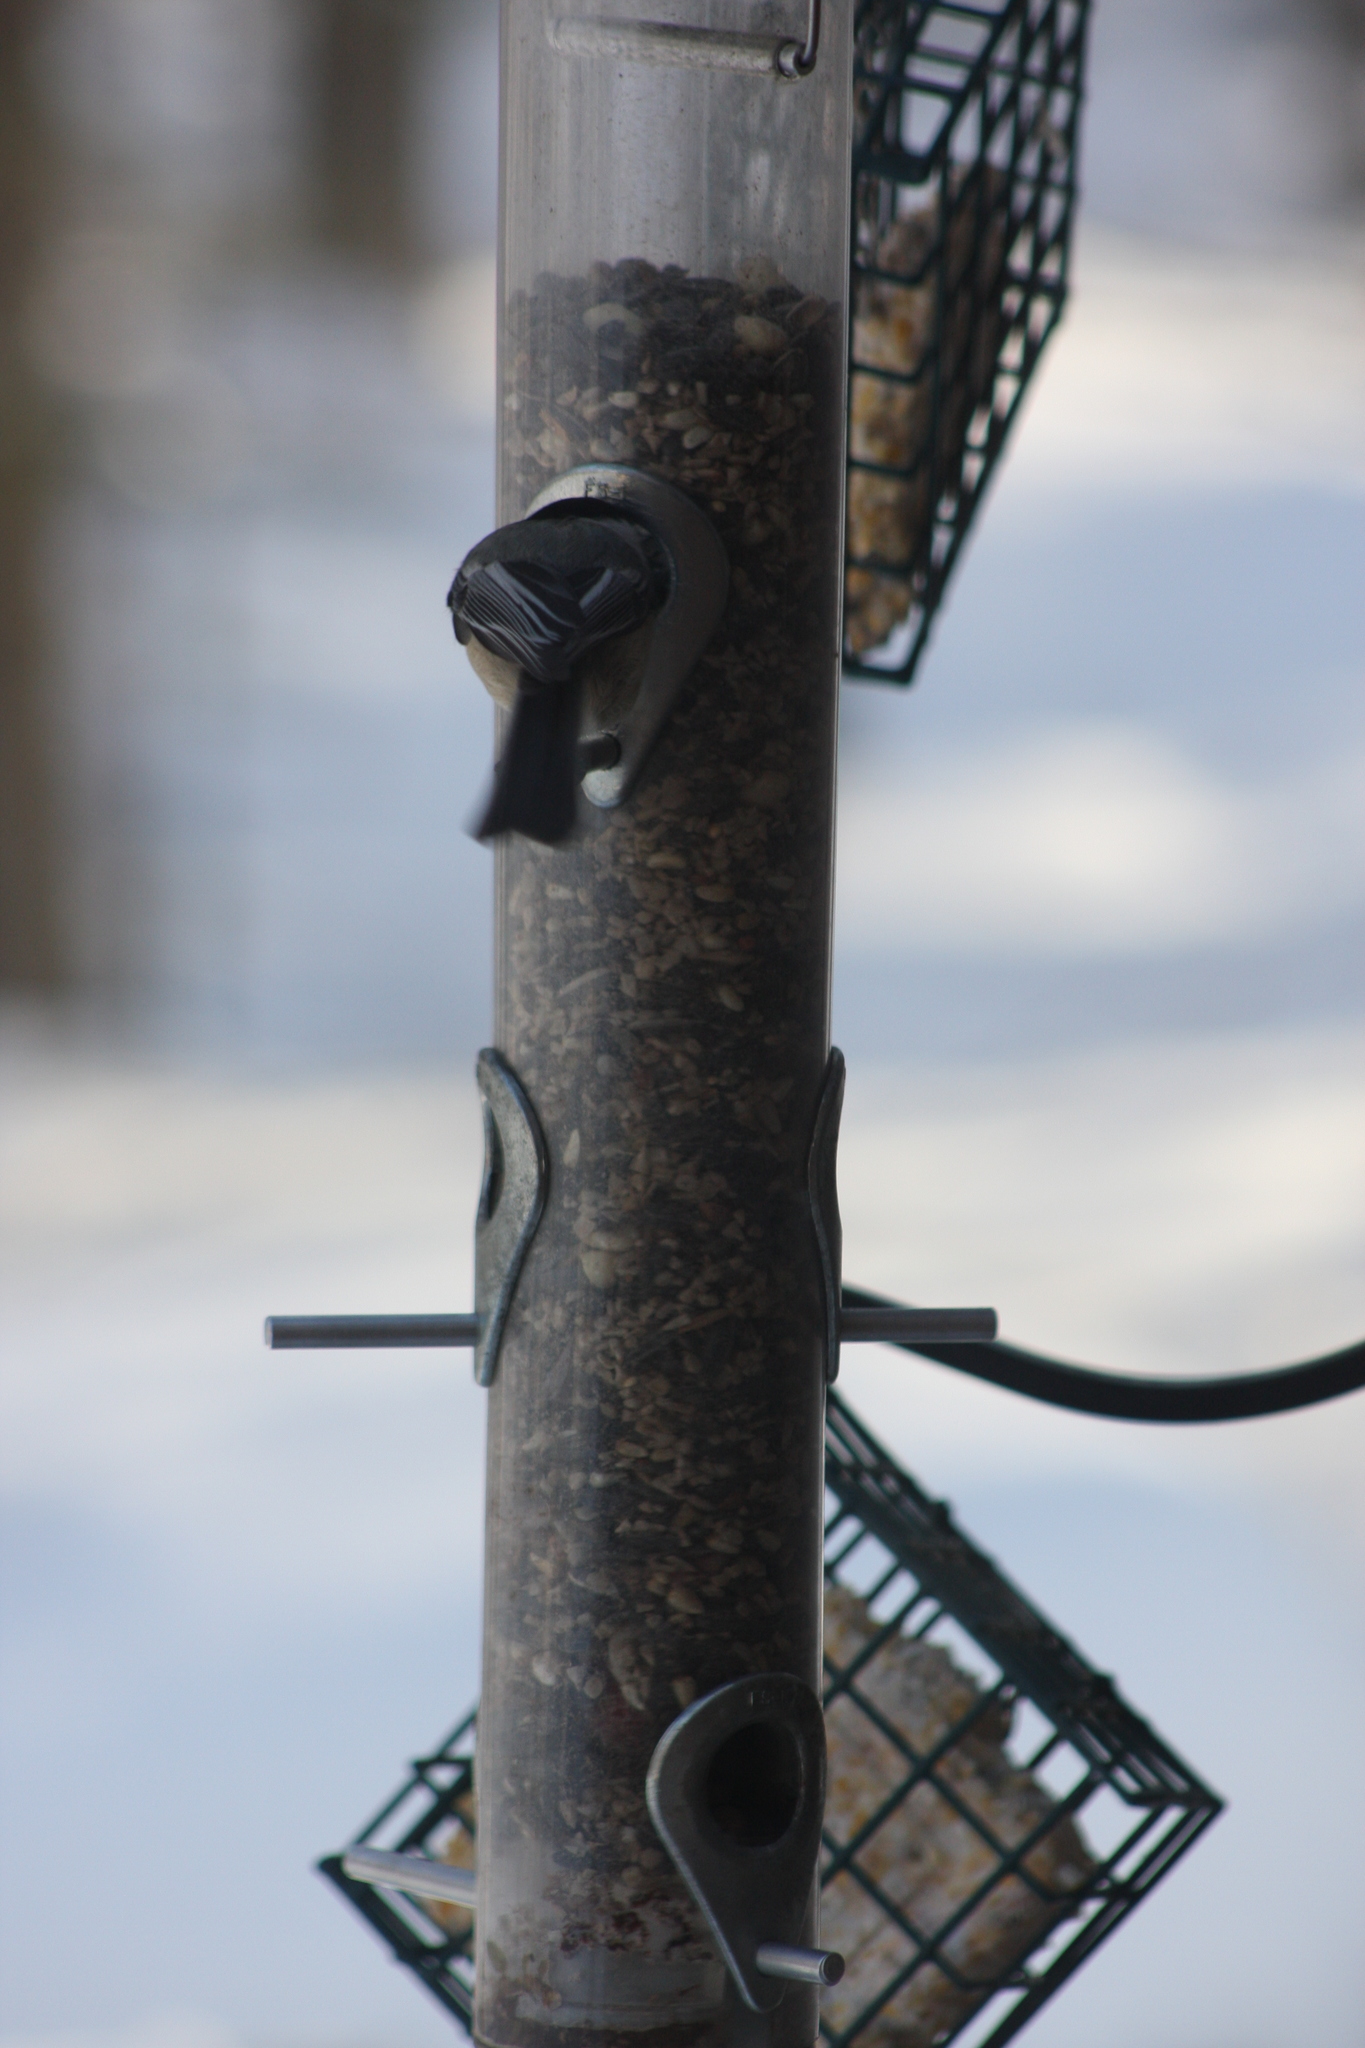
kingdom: Animalia
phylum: Chordata
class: Aves
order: Passeriformes
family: Paridae
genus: Poecile
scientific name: Poecile atricapillus
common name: Black-capped chickadee
